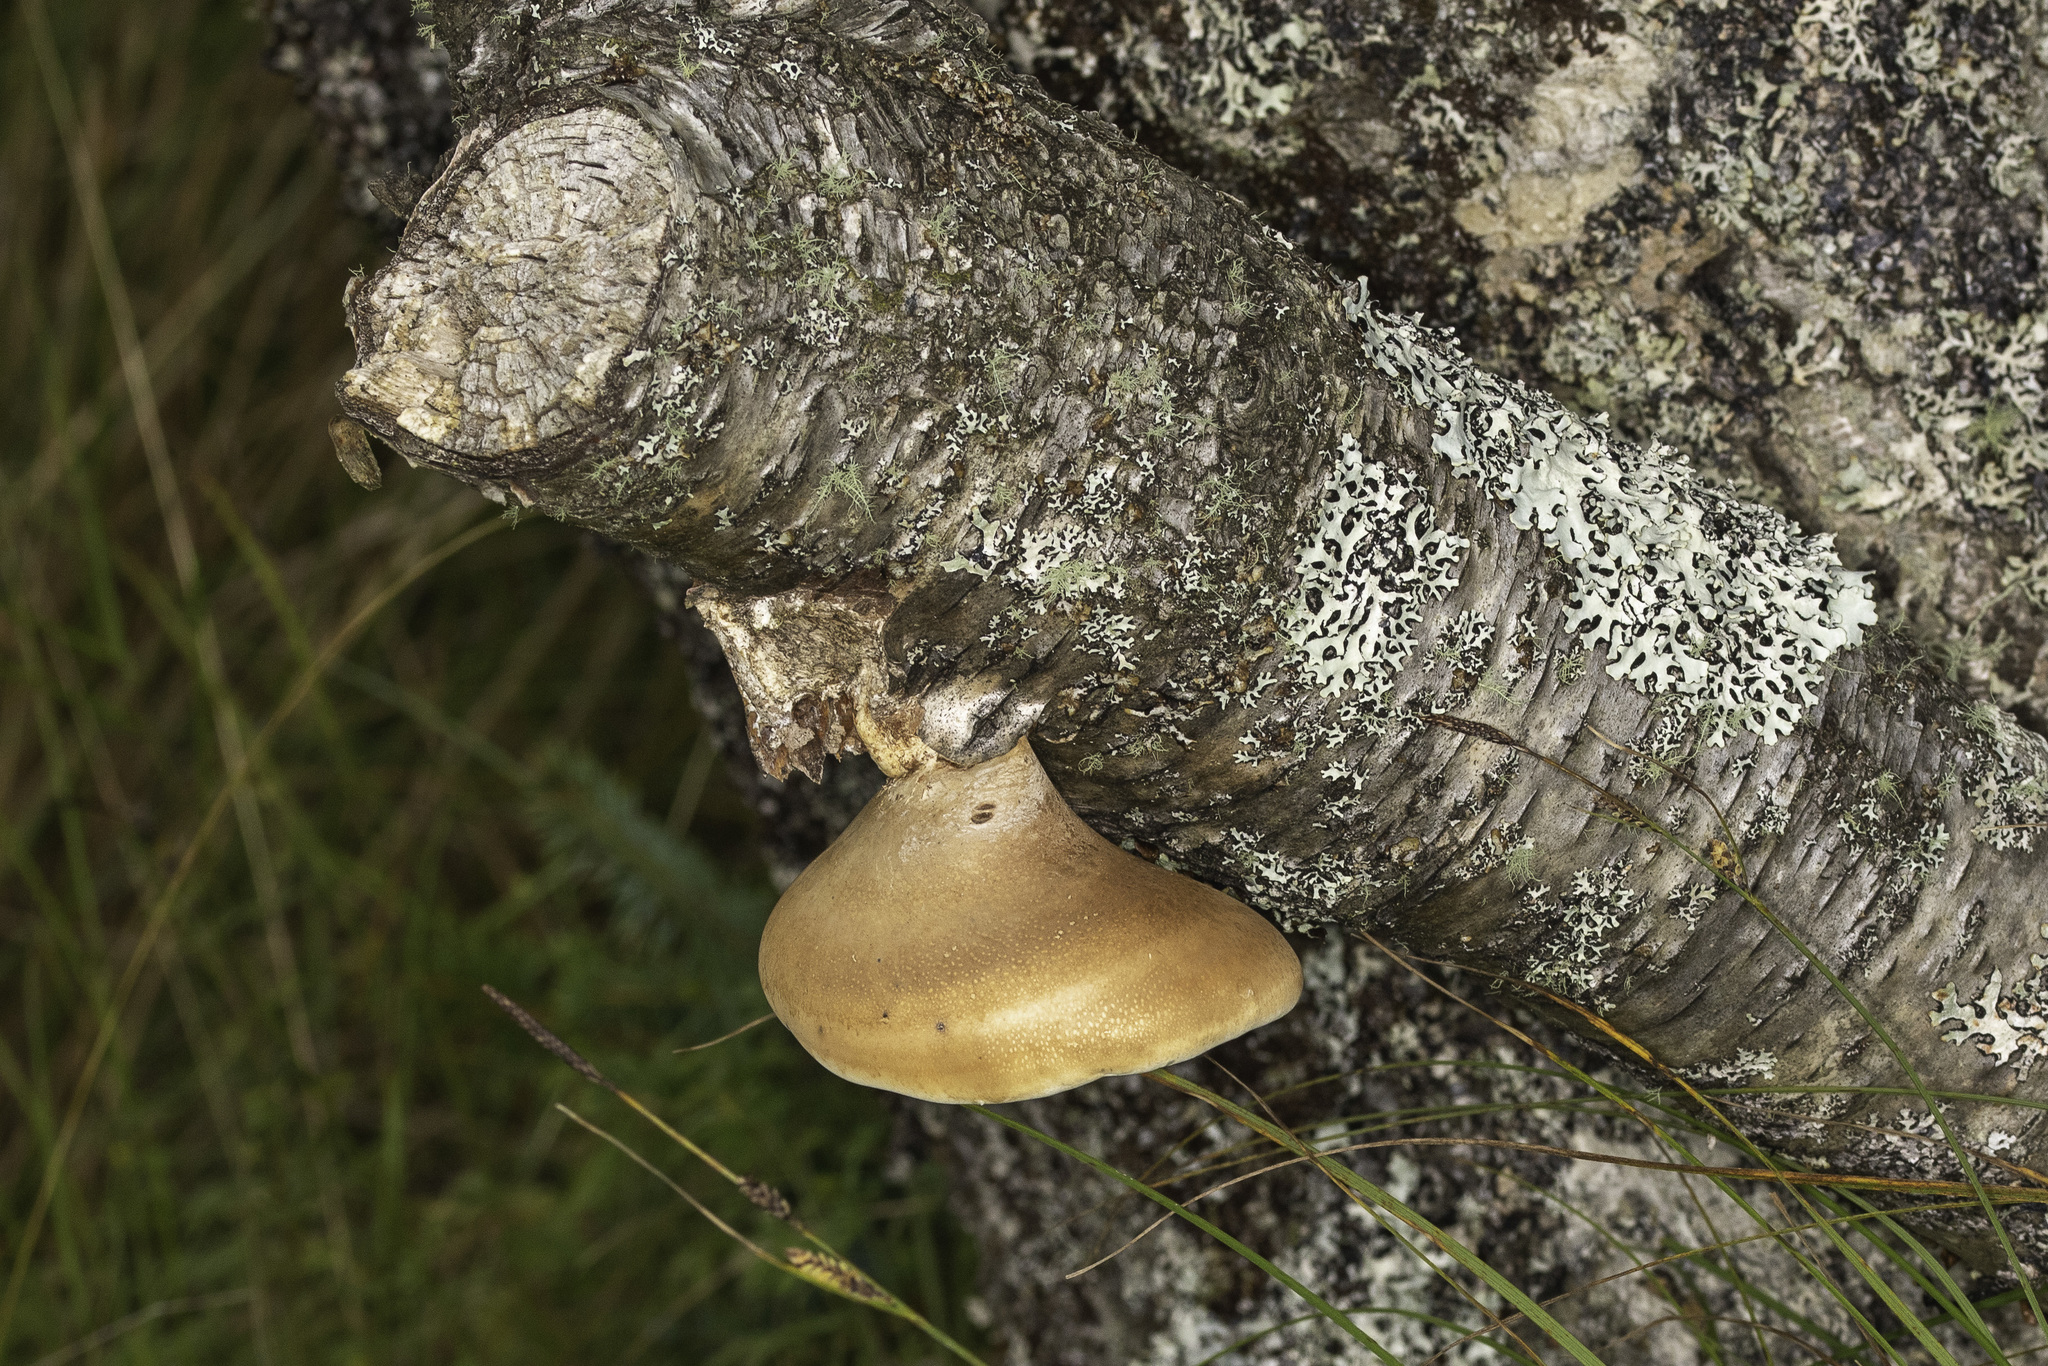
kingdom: Fungi
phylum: Basidiomycota
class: Agaricomycetes
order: Polyporales
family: Fomitopsidaceae
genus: Fomitopsis
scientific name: Fomitopsis betulina
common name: Birch polypore
